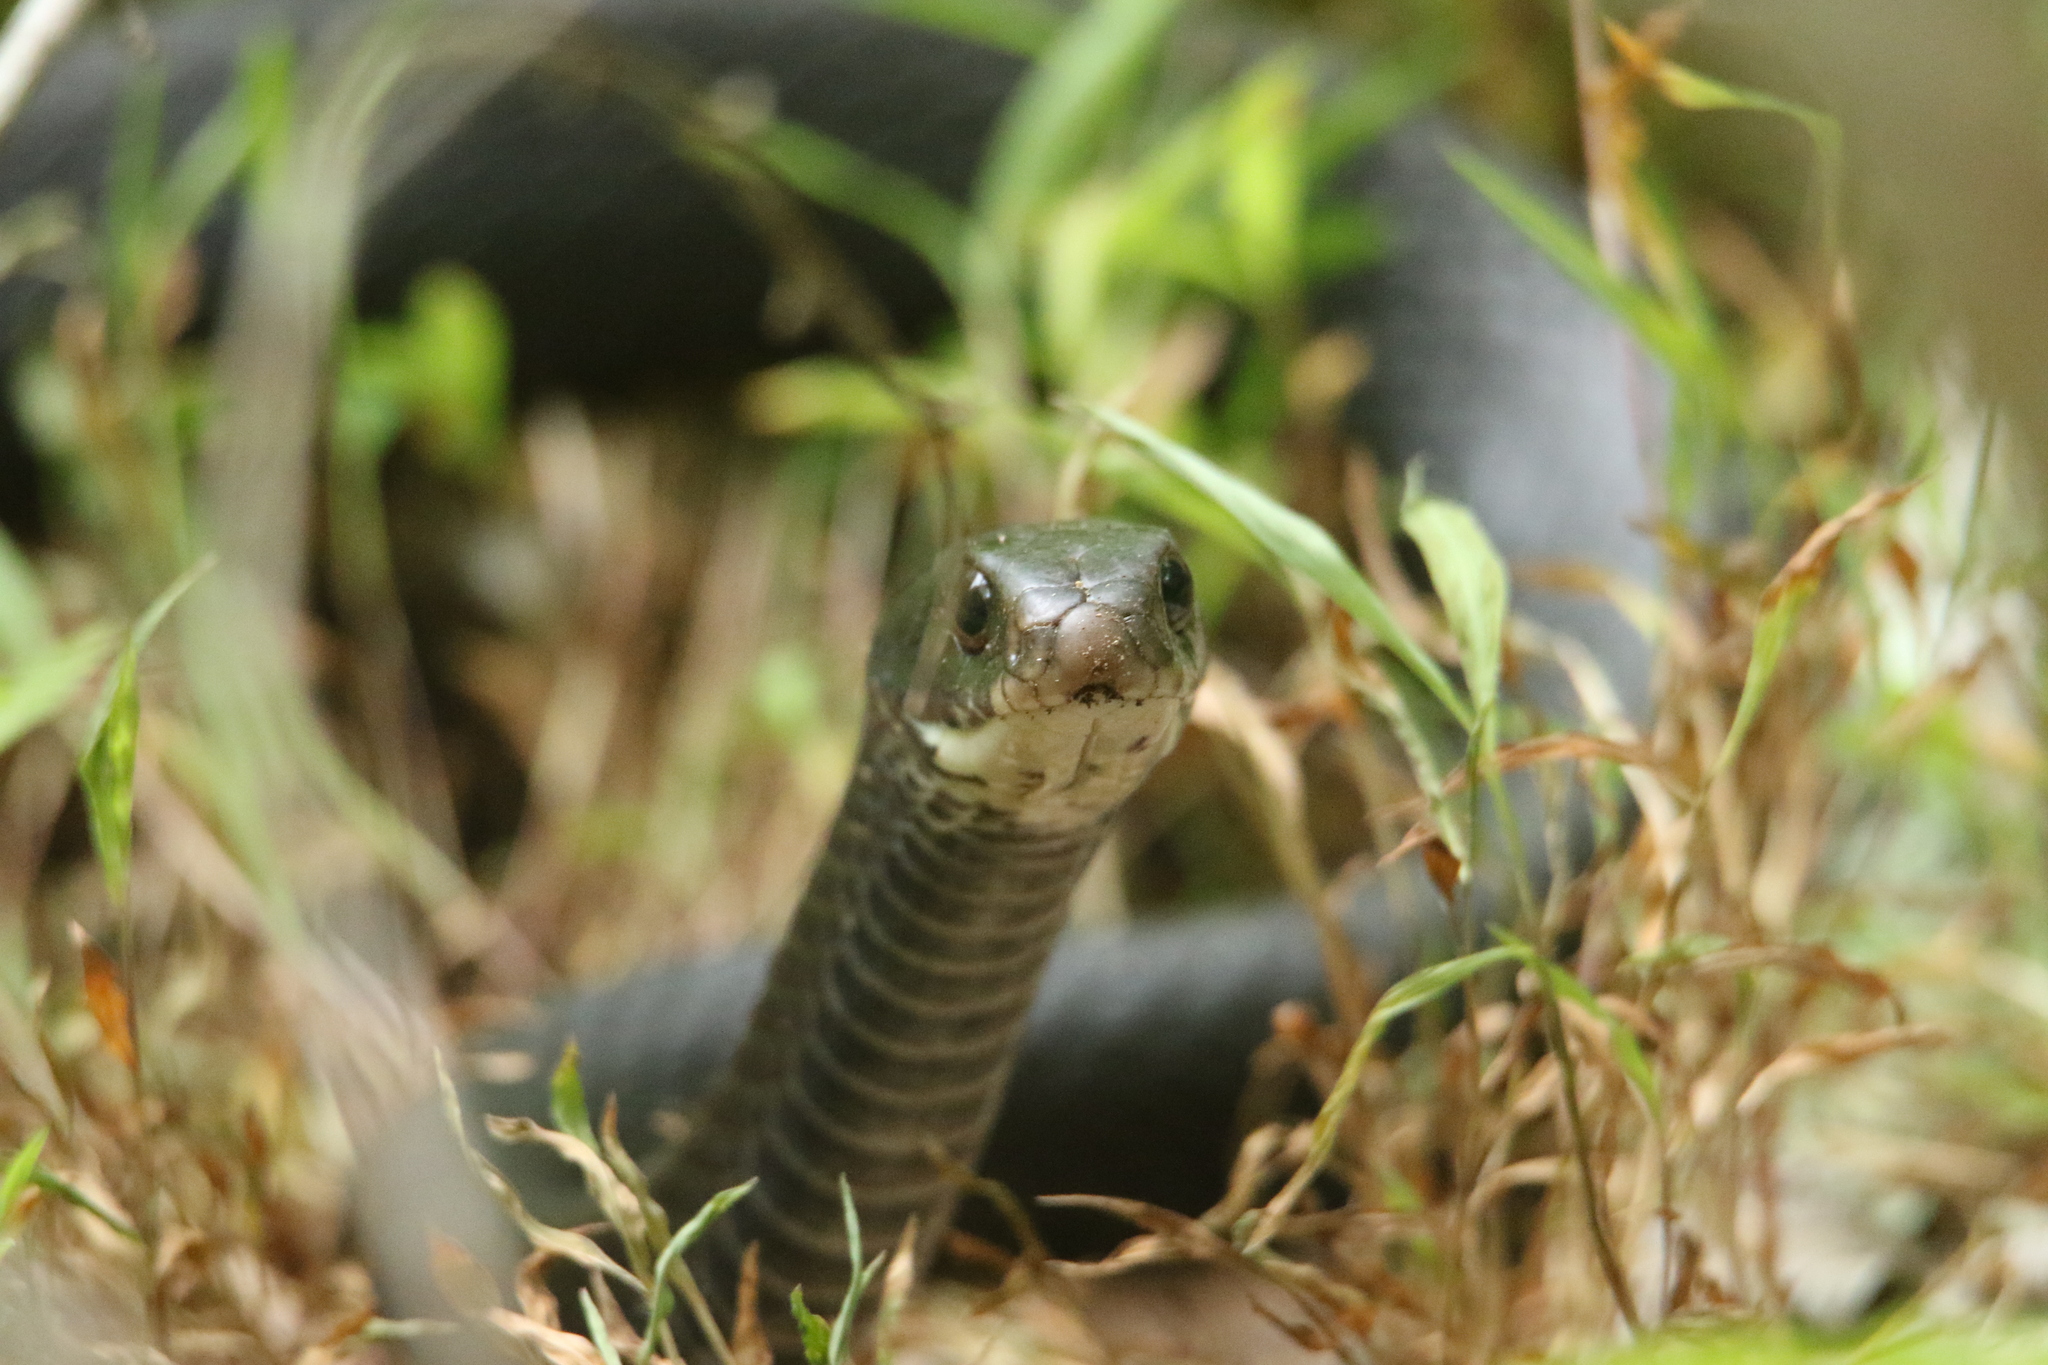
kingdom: Animalia
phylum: Chordata
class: Squamata
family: Colubridae
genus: Coluber
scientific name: Coluber constrictor
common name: Eastern racer
